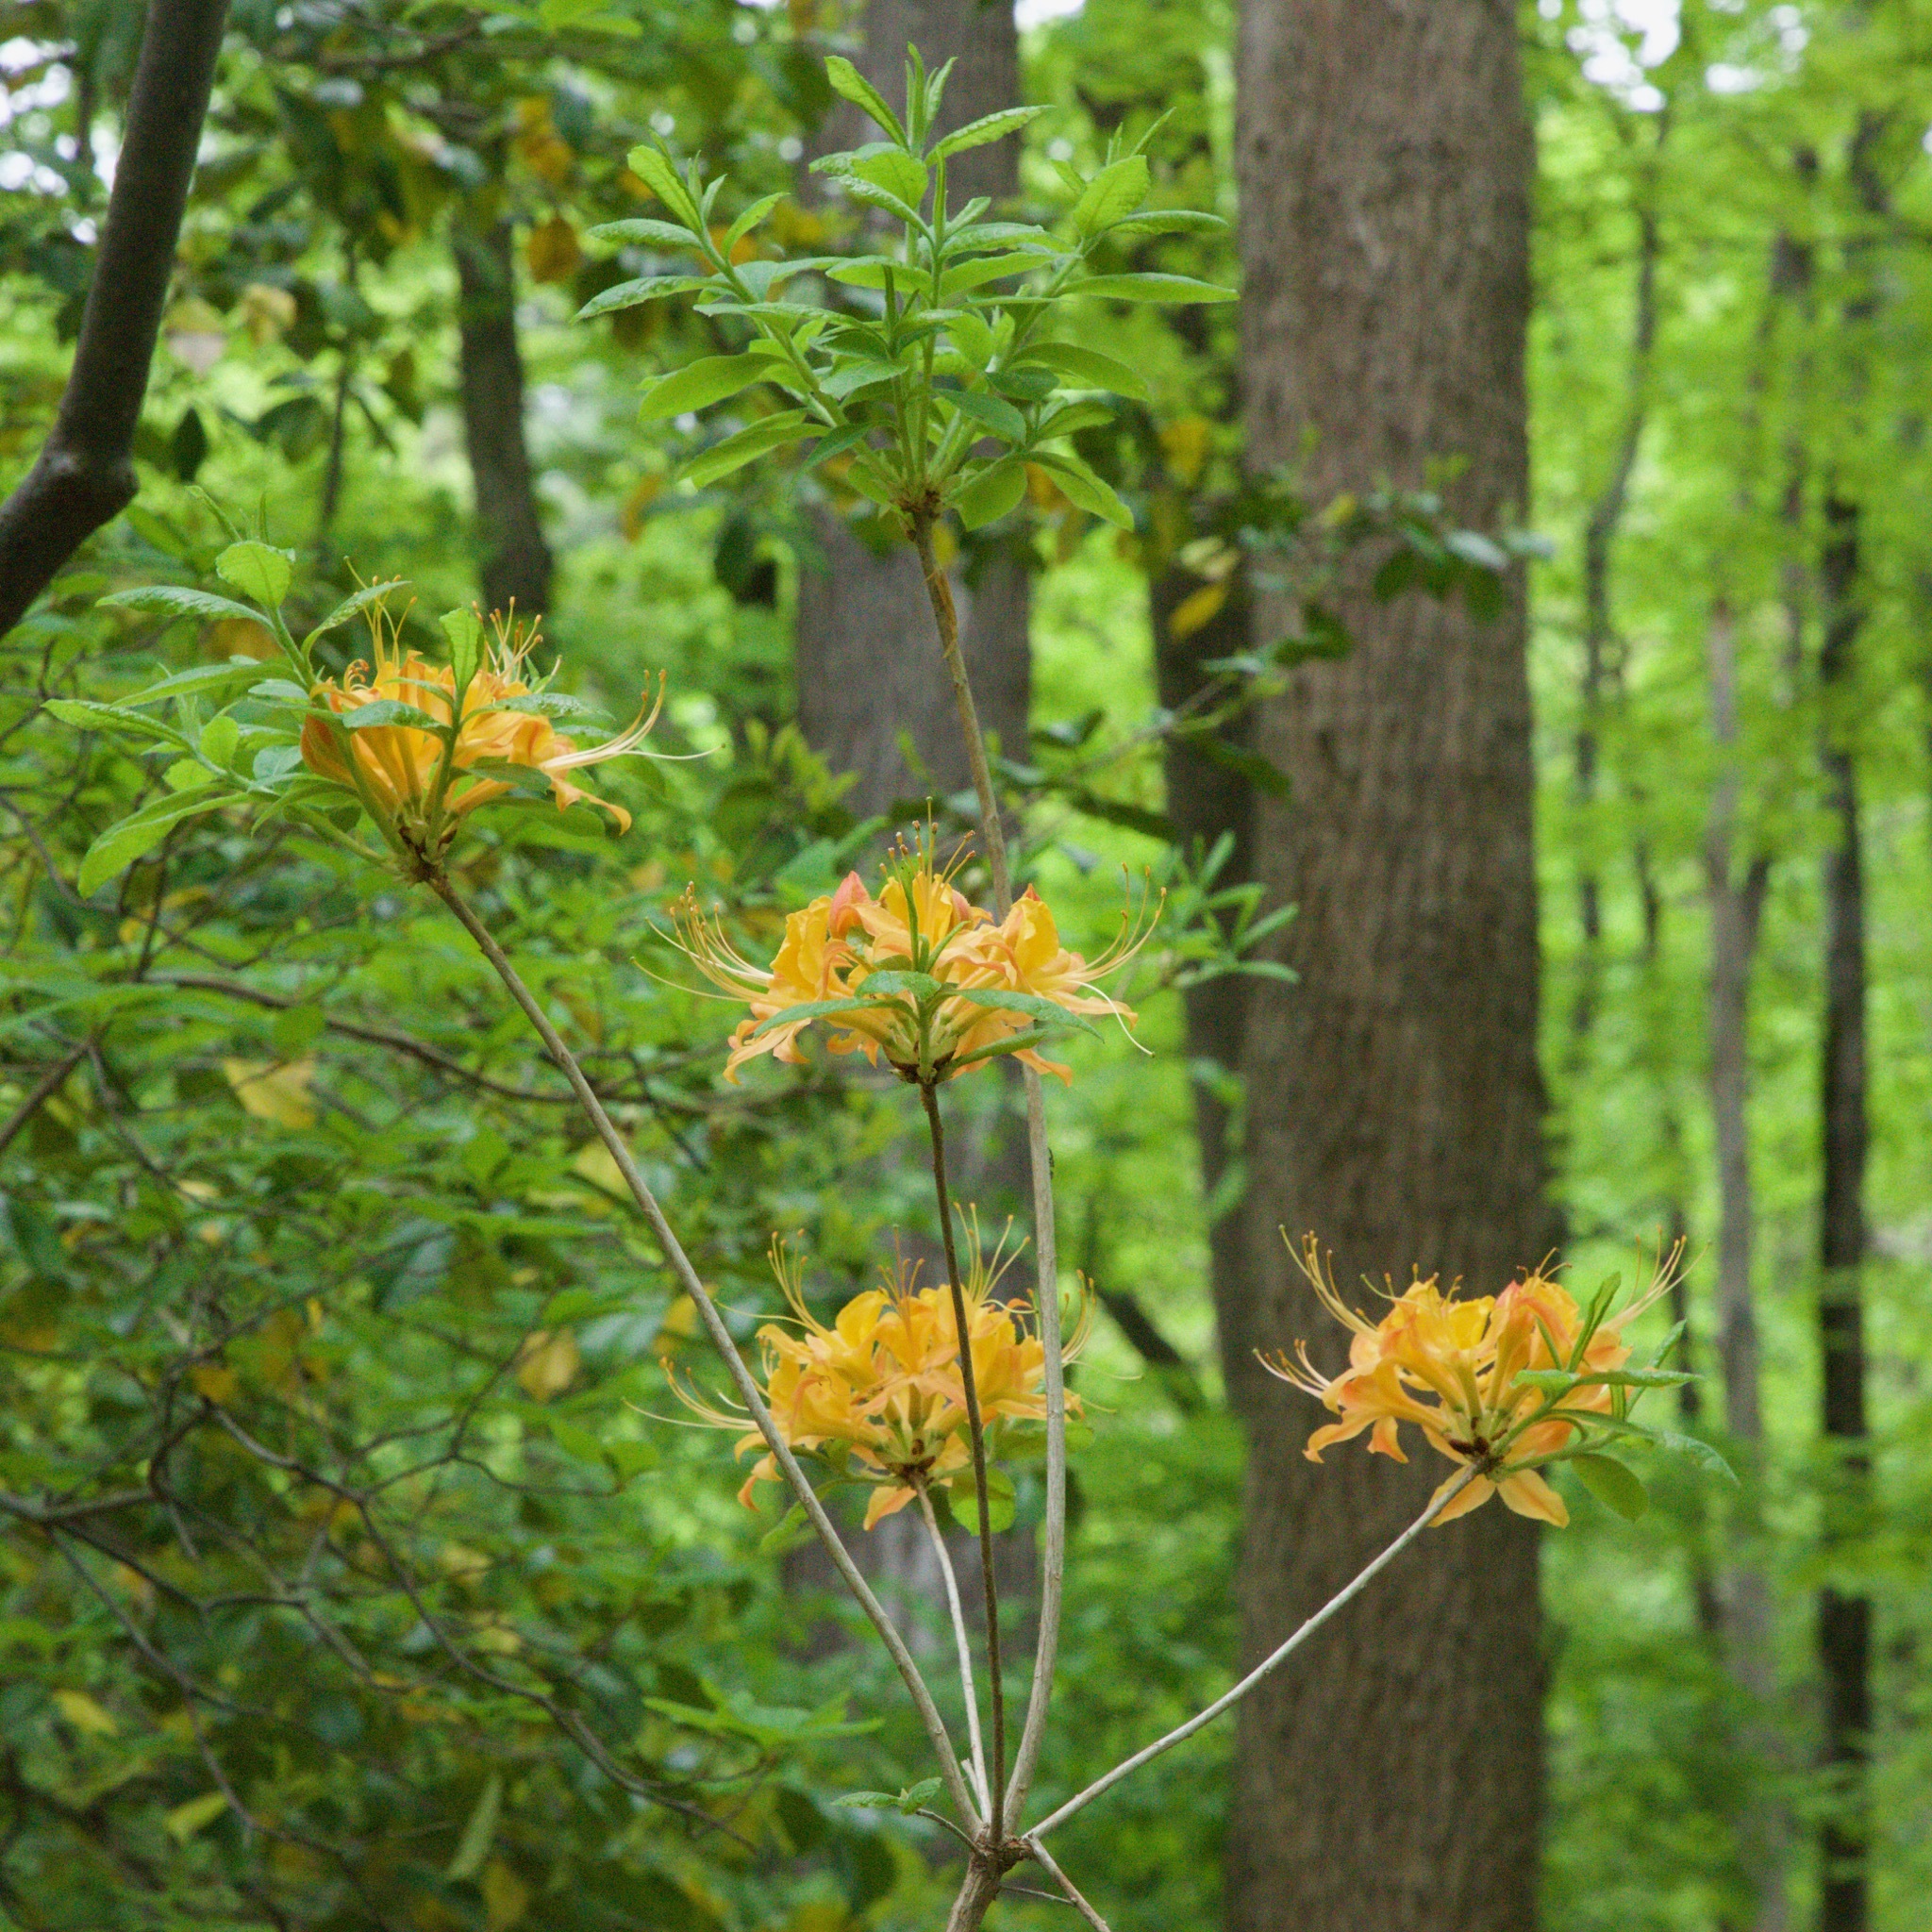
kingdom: Plantae
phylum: Tracheophyta
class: Magnoliopsida
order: Ericales
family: Ericaceae
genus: Rhododendron
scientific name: Rhododendron calendulaceum
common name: Flame azalea
